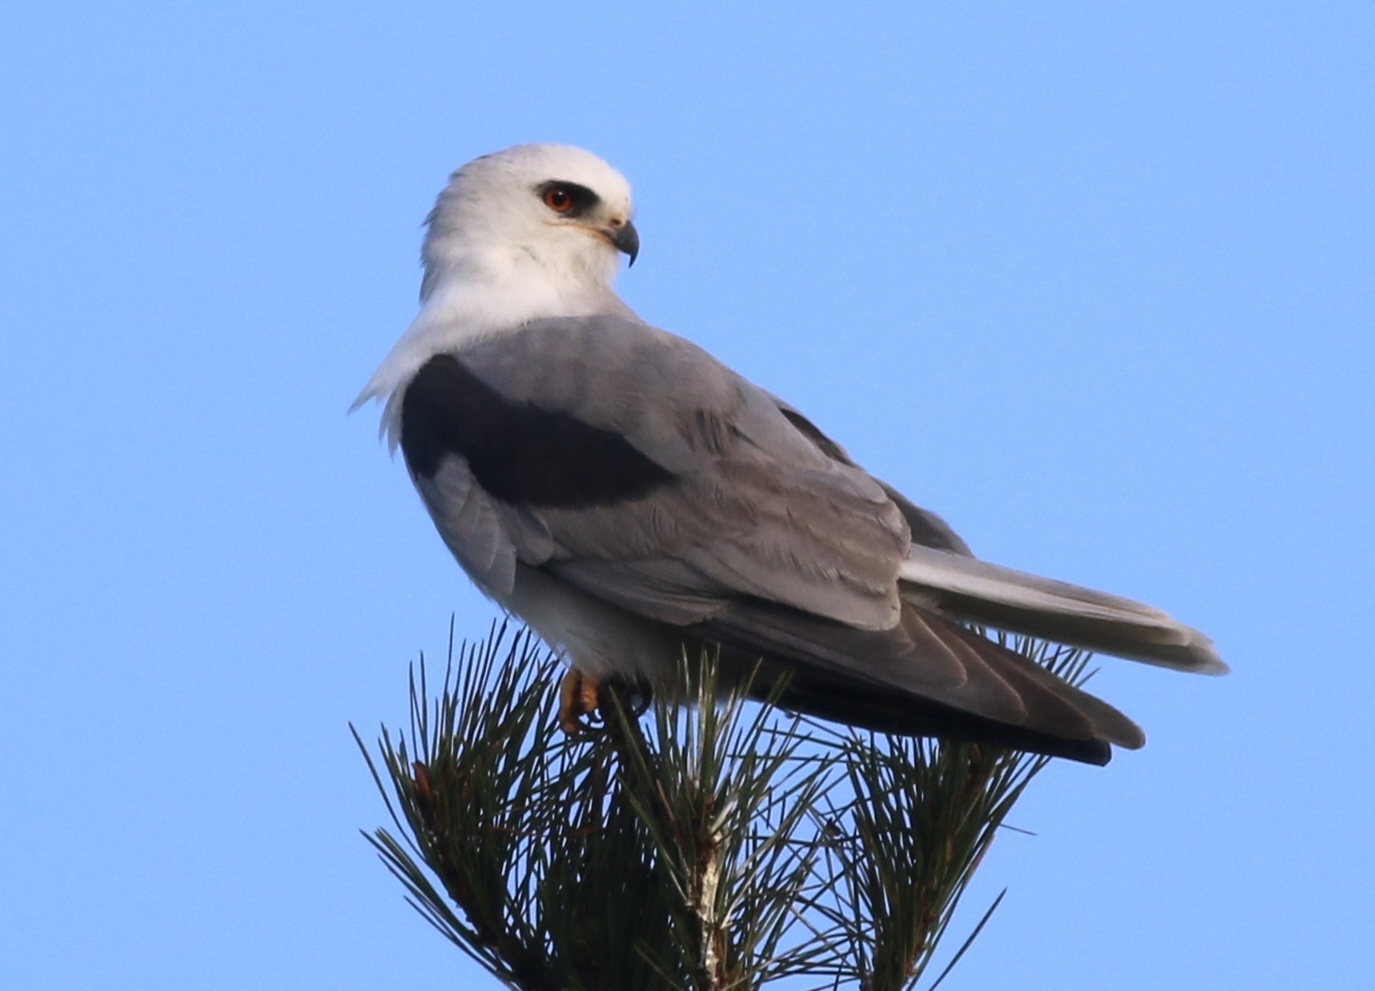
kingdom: Animalia
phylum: Chordata
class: Aves
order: Accipitriformes
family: Accipitridae
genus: Elanus
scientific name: Elanus leucurus
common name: White-tailed kite
